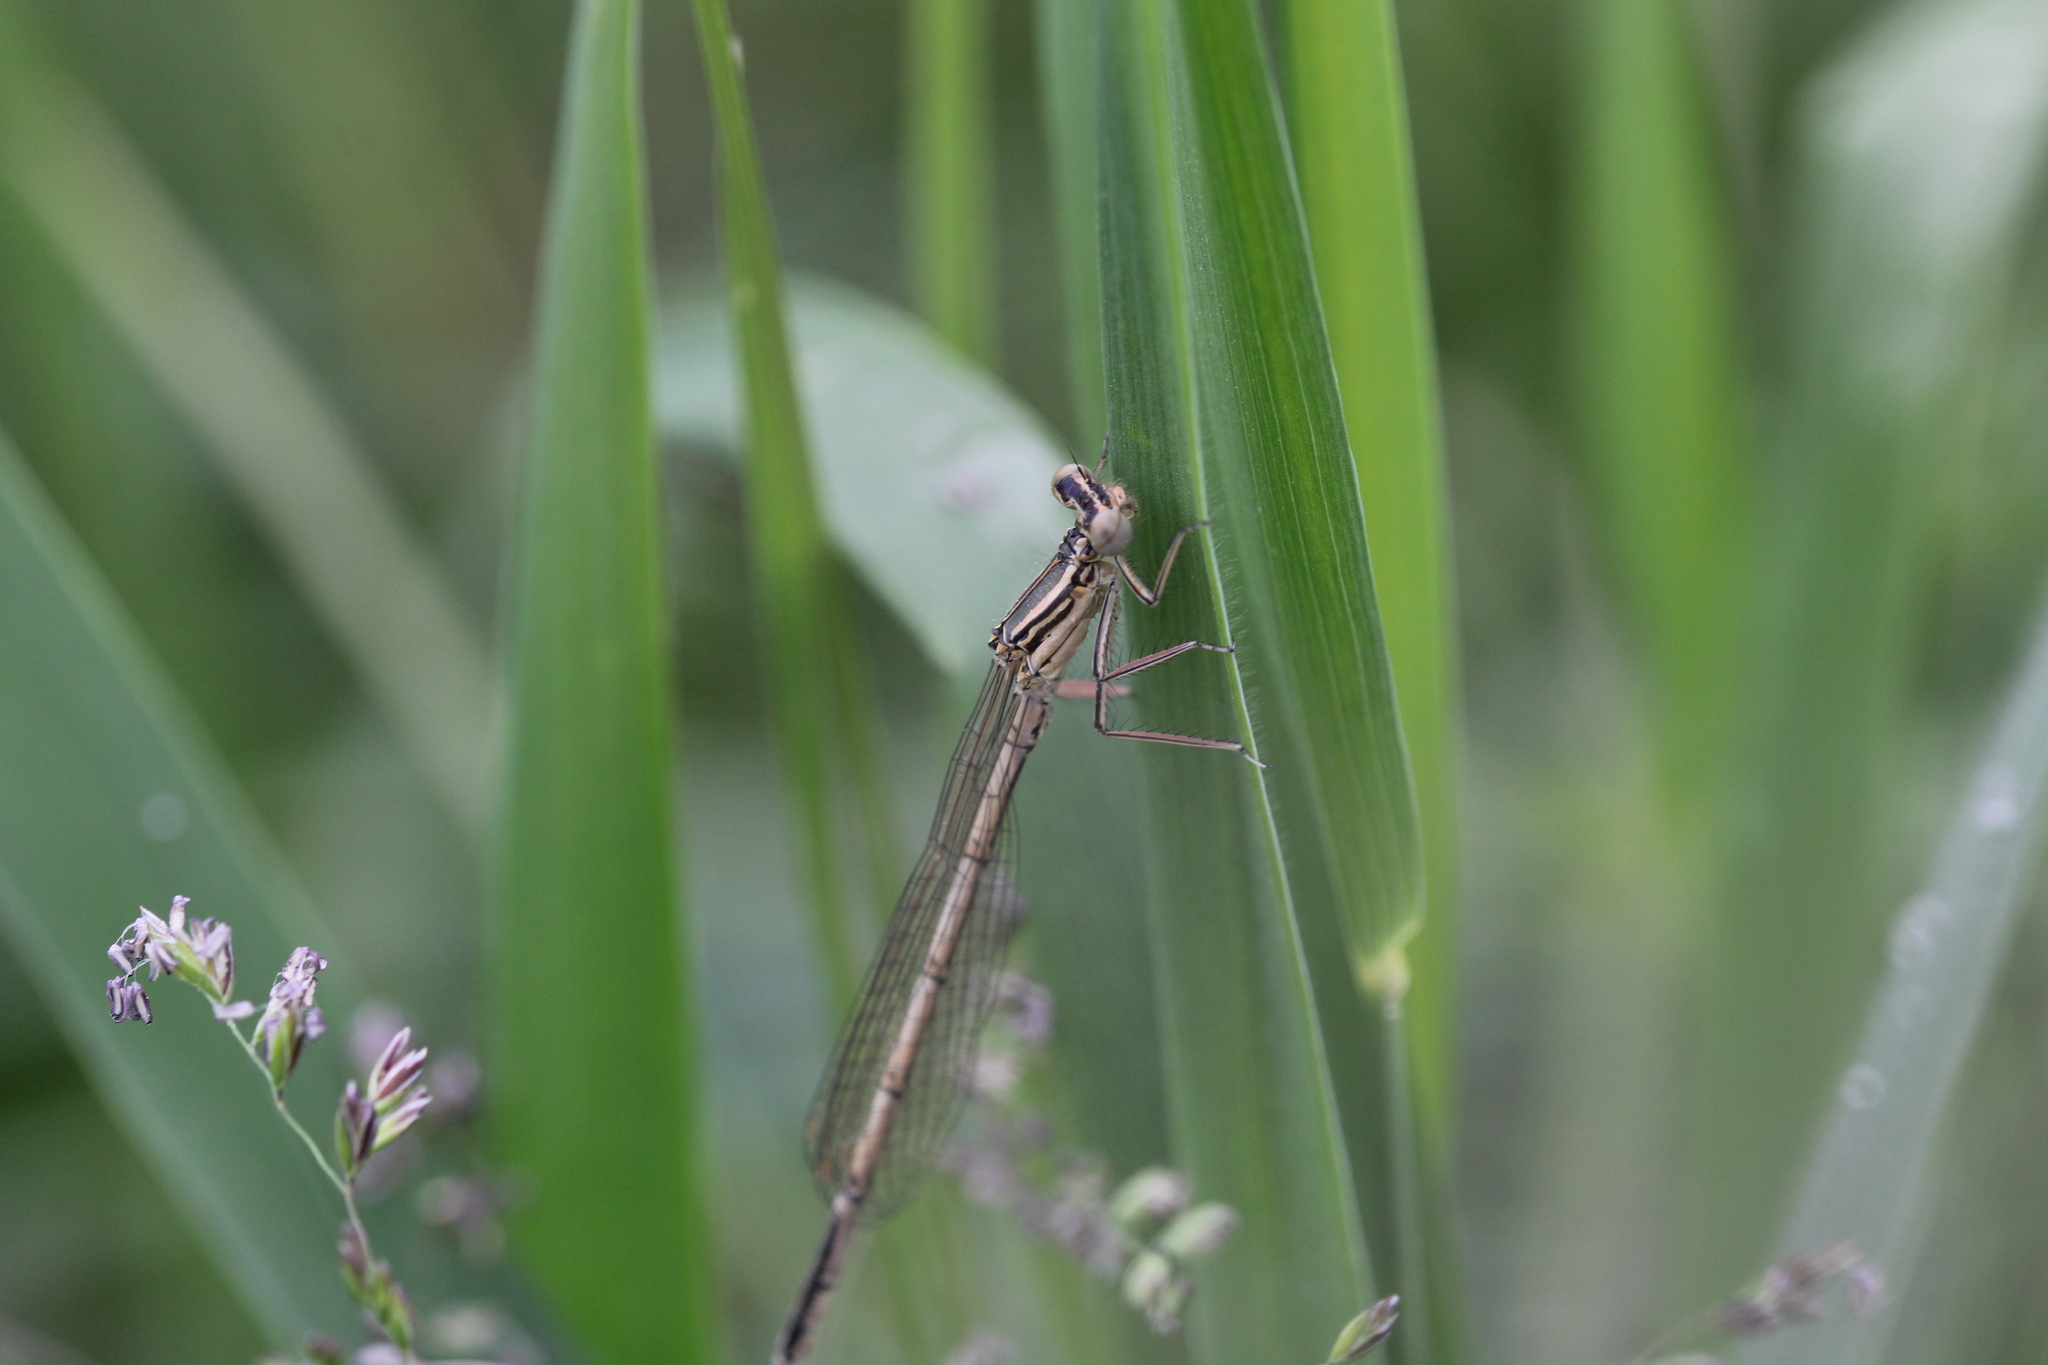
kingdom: Animalia
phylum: Arthropoda
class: Insecta
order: Odonata
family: Platycnemididae
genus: Platycnemis
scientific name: Platycnemis pennipes
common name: White-legged damselfly
